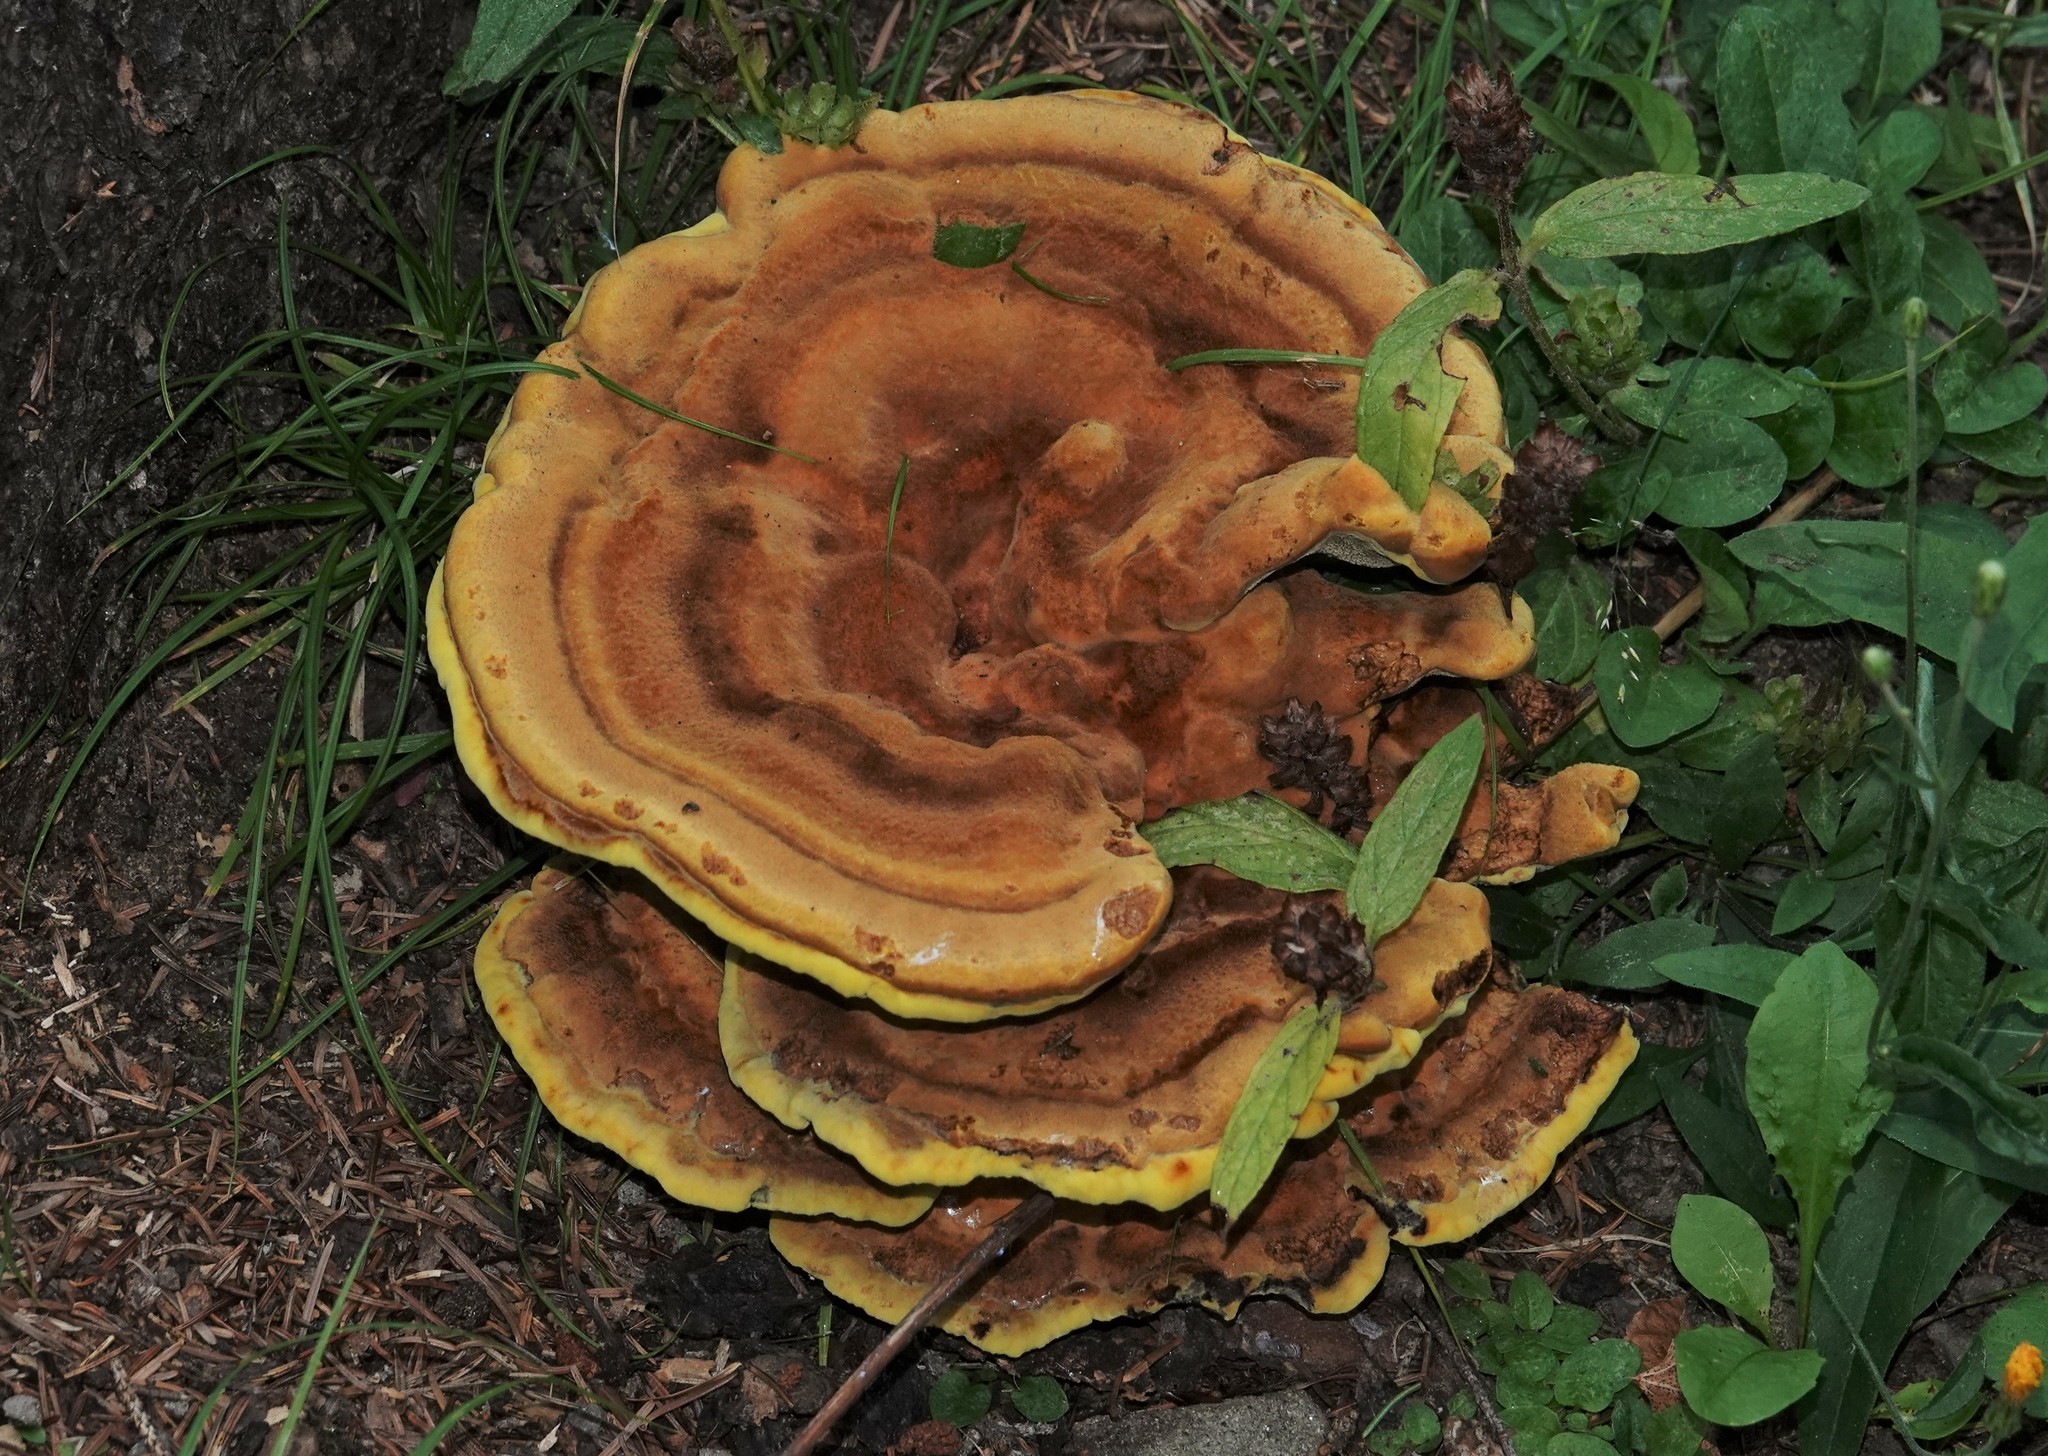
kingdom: Fungi
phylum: Basidiomycota
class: Agaricomycetes
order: Polyporales
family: Laetiporaceae
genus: Phaeolus
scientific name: Phaeolus schweinitzii
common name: Dyer's mazegill
